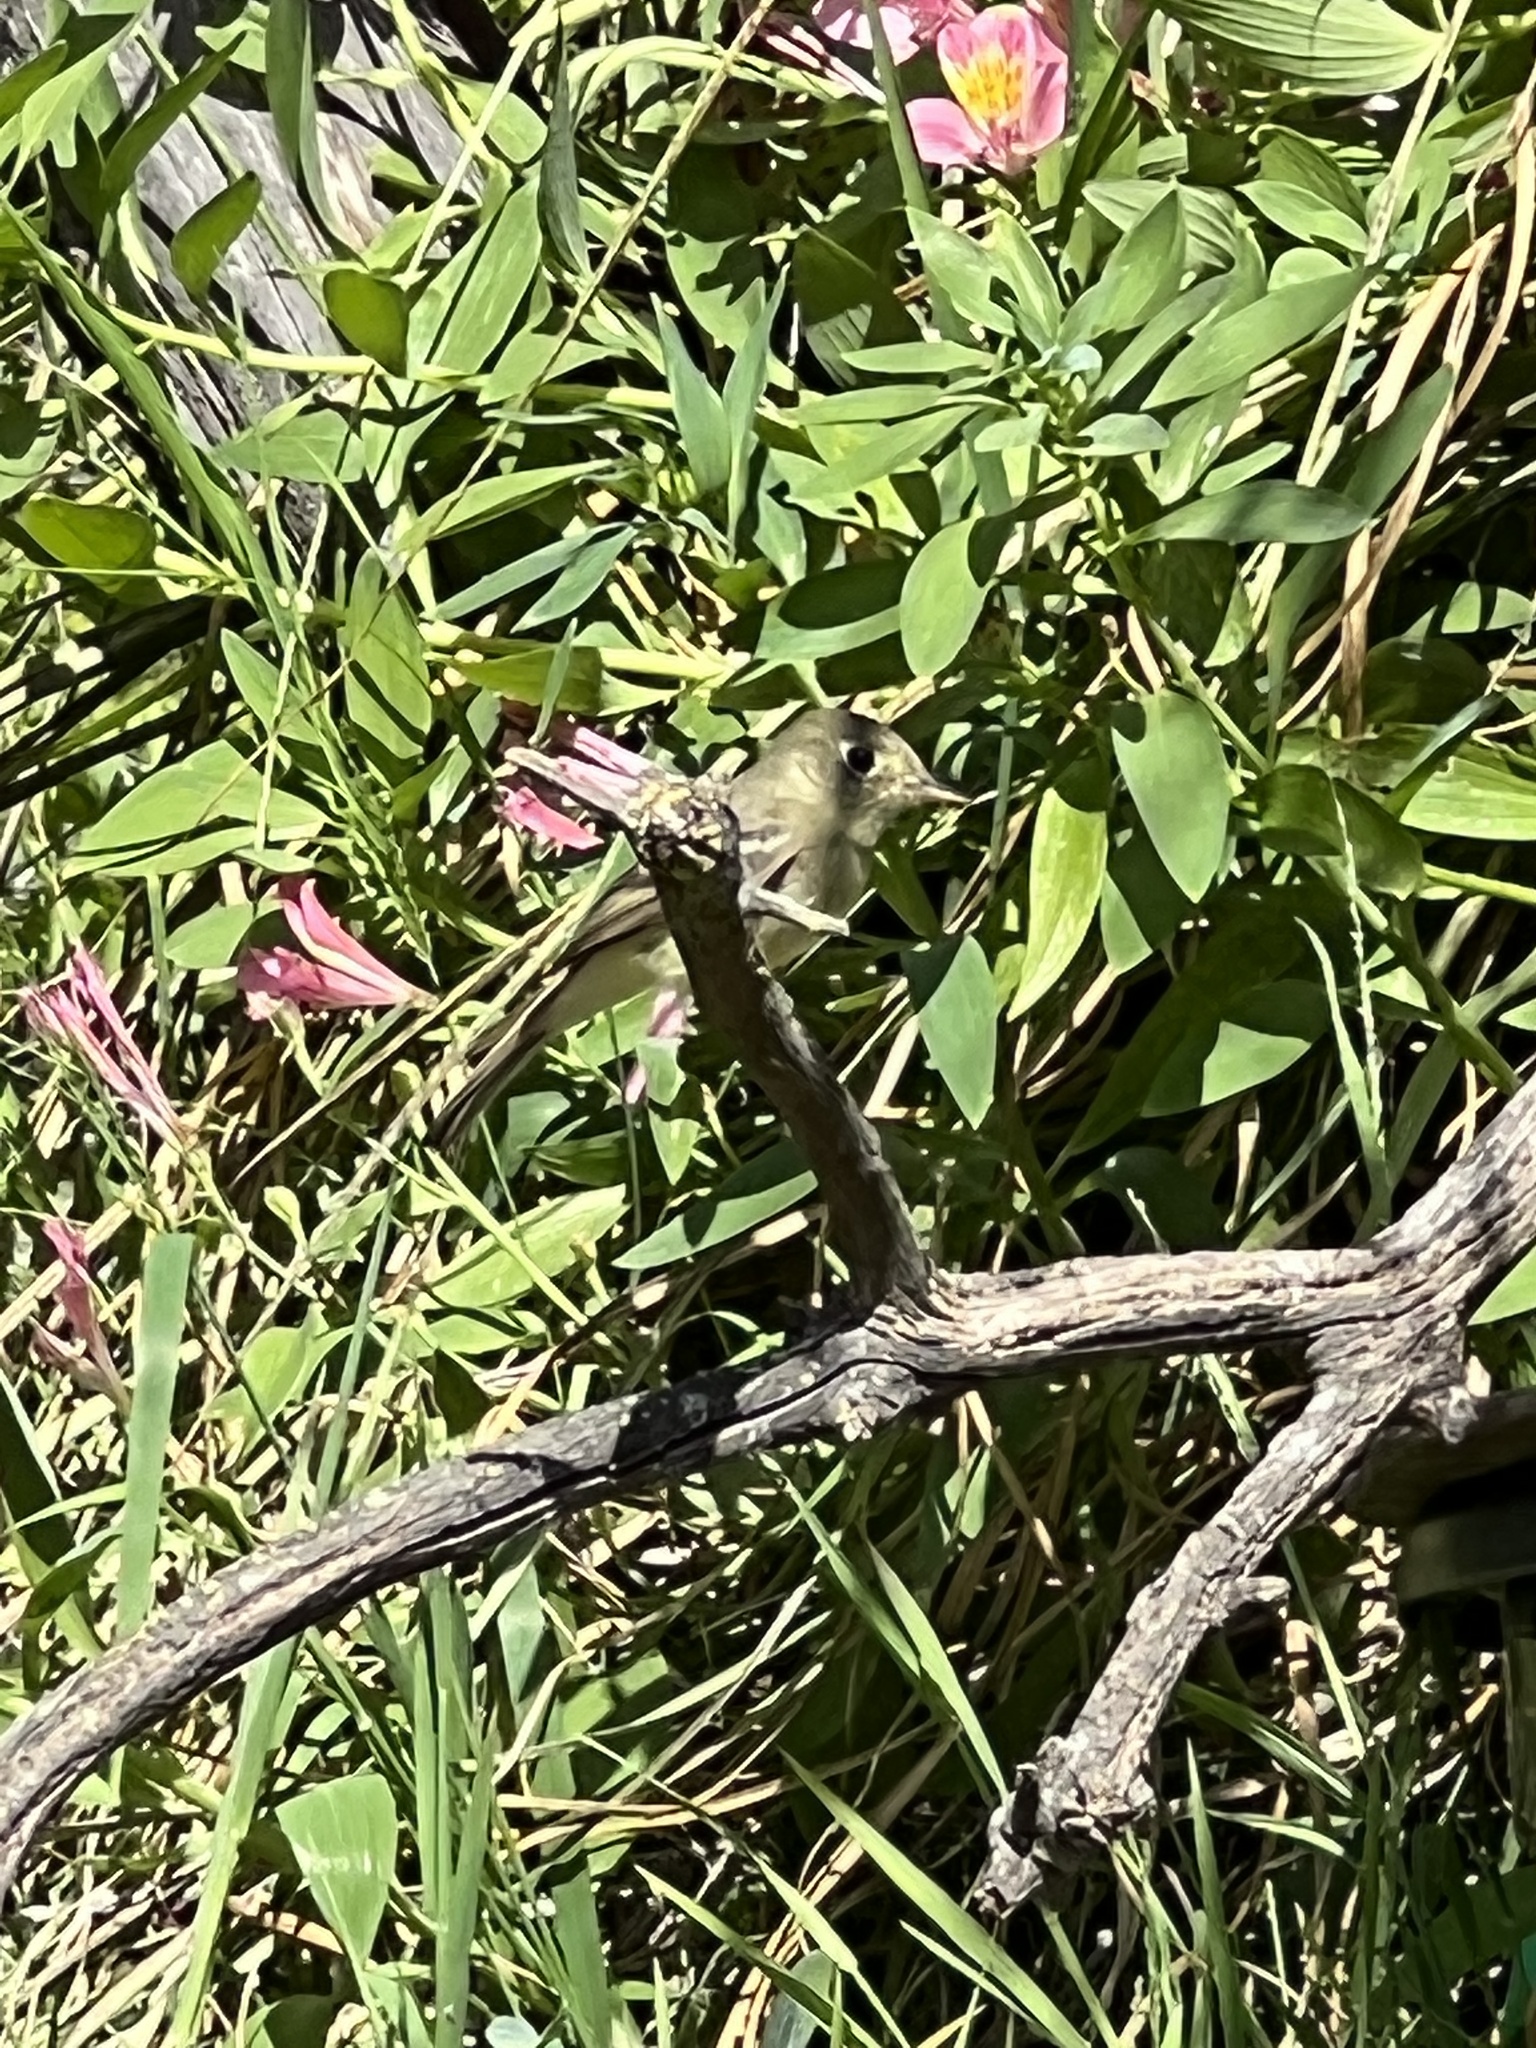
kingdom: Animalia
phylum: Chordata
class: Aves
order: Passeriformes
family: Tyrannidae
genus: Empidonax
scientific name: Empidonax difficilis
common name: Pacific-slope flycatcher
